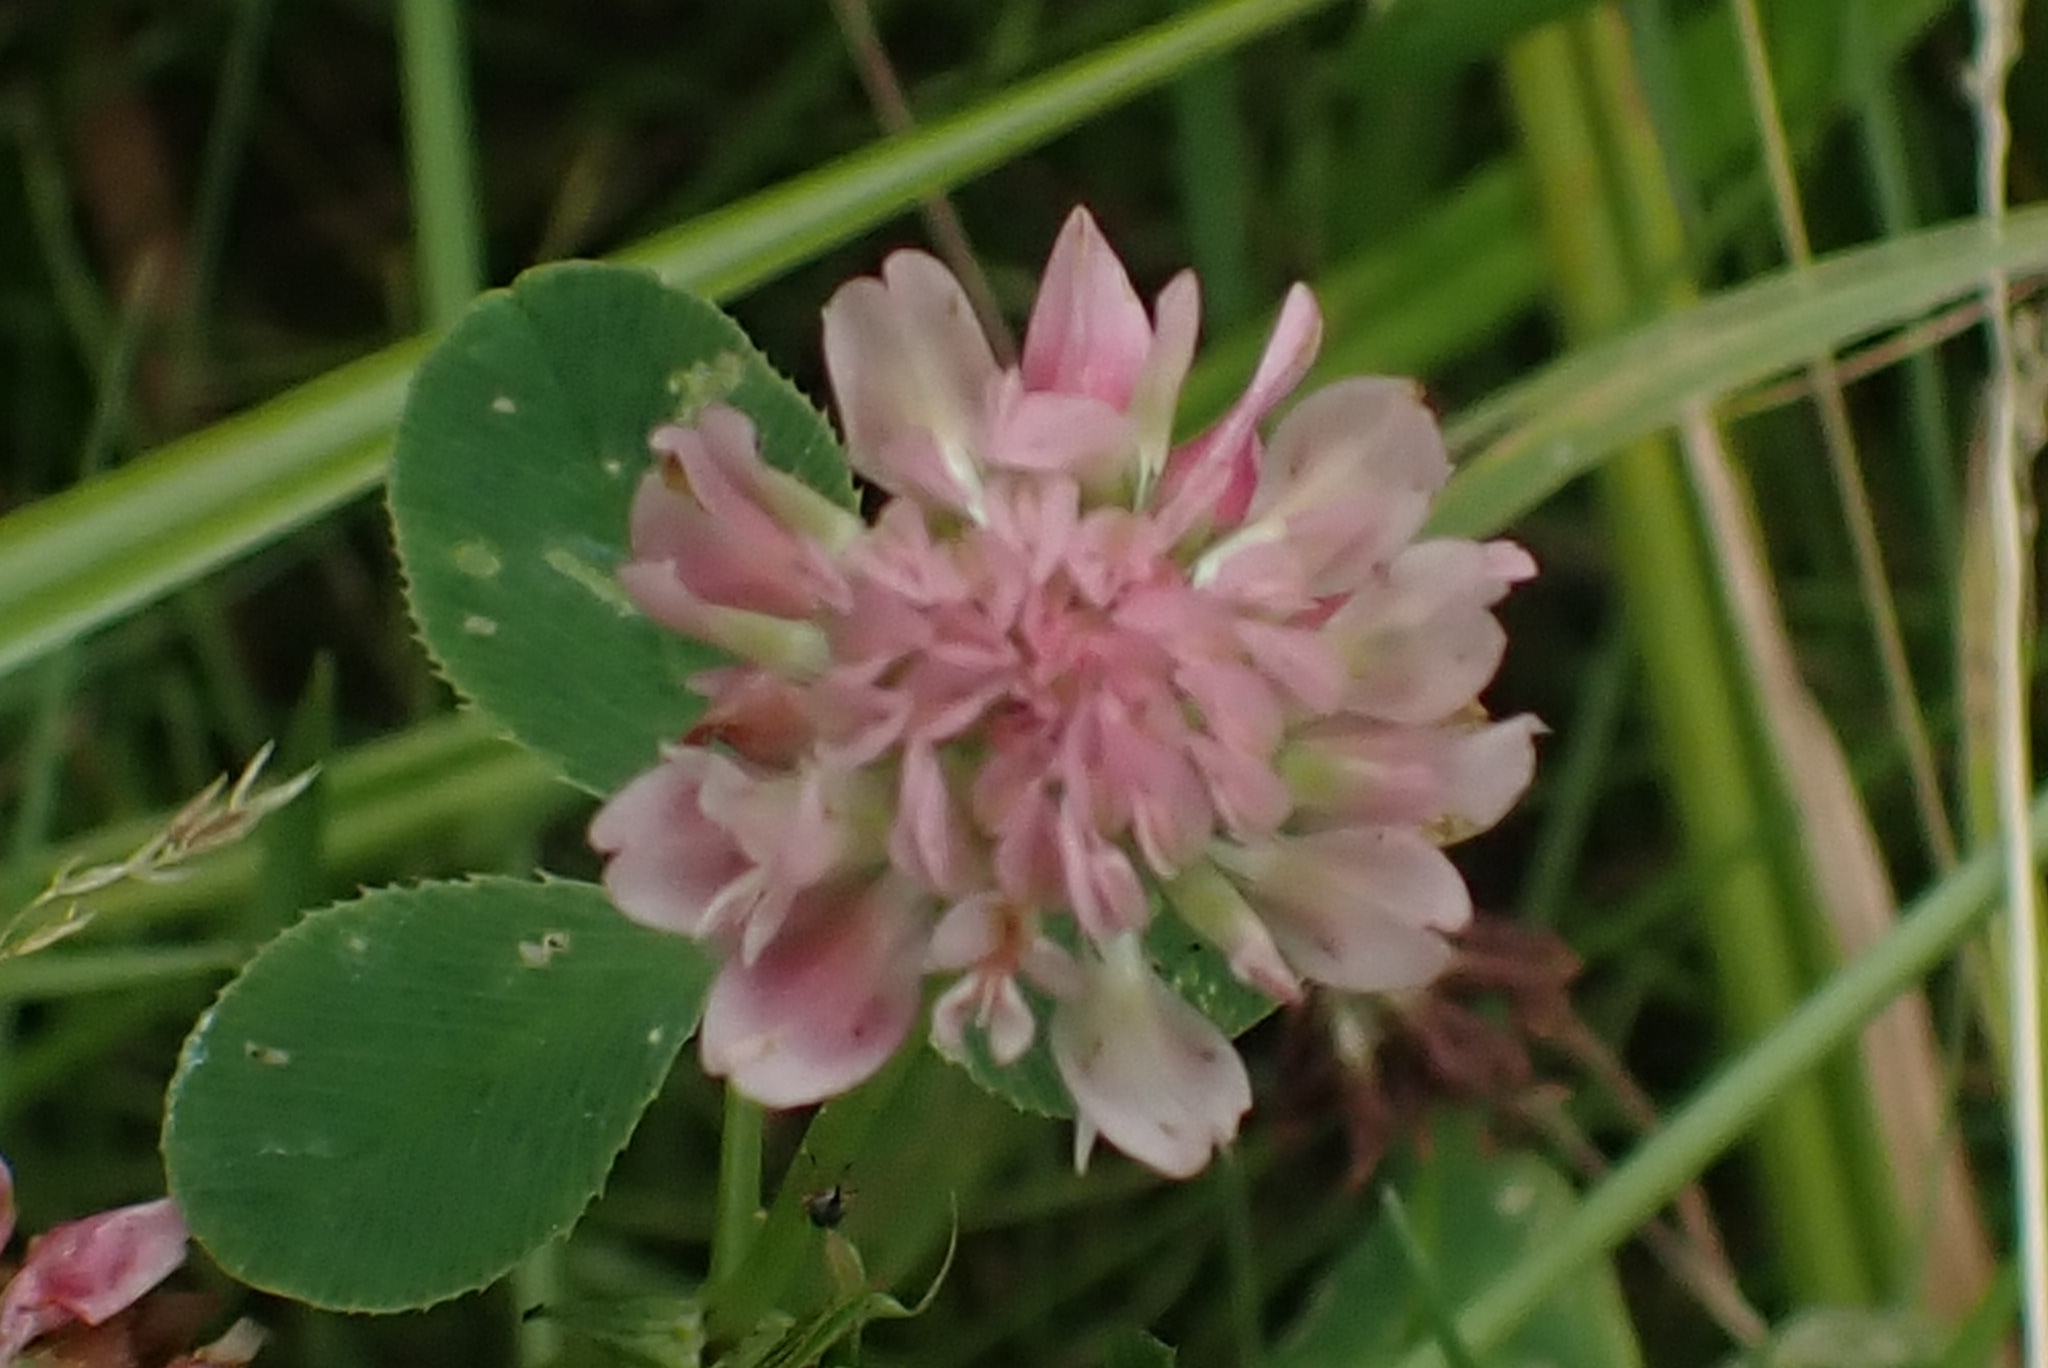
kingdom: Plantae
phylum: Tracheophyta
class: Magnoliopsida
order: Fabales
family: Fabaceae
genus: Trifolium
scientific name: Trifolium hybridum
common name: Alsike clover
